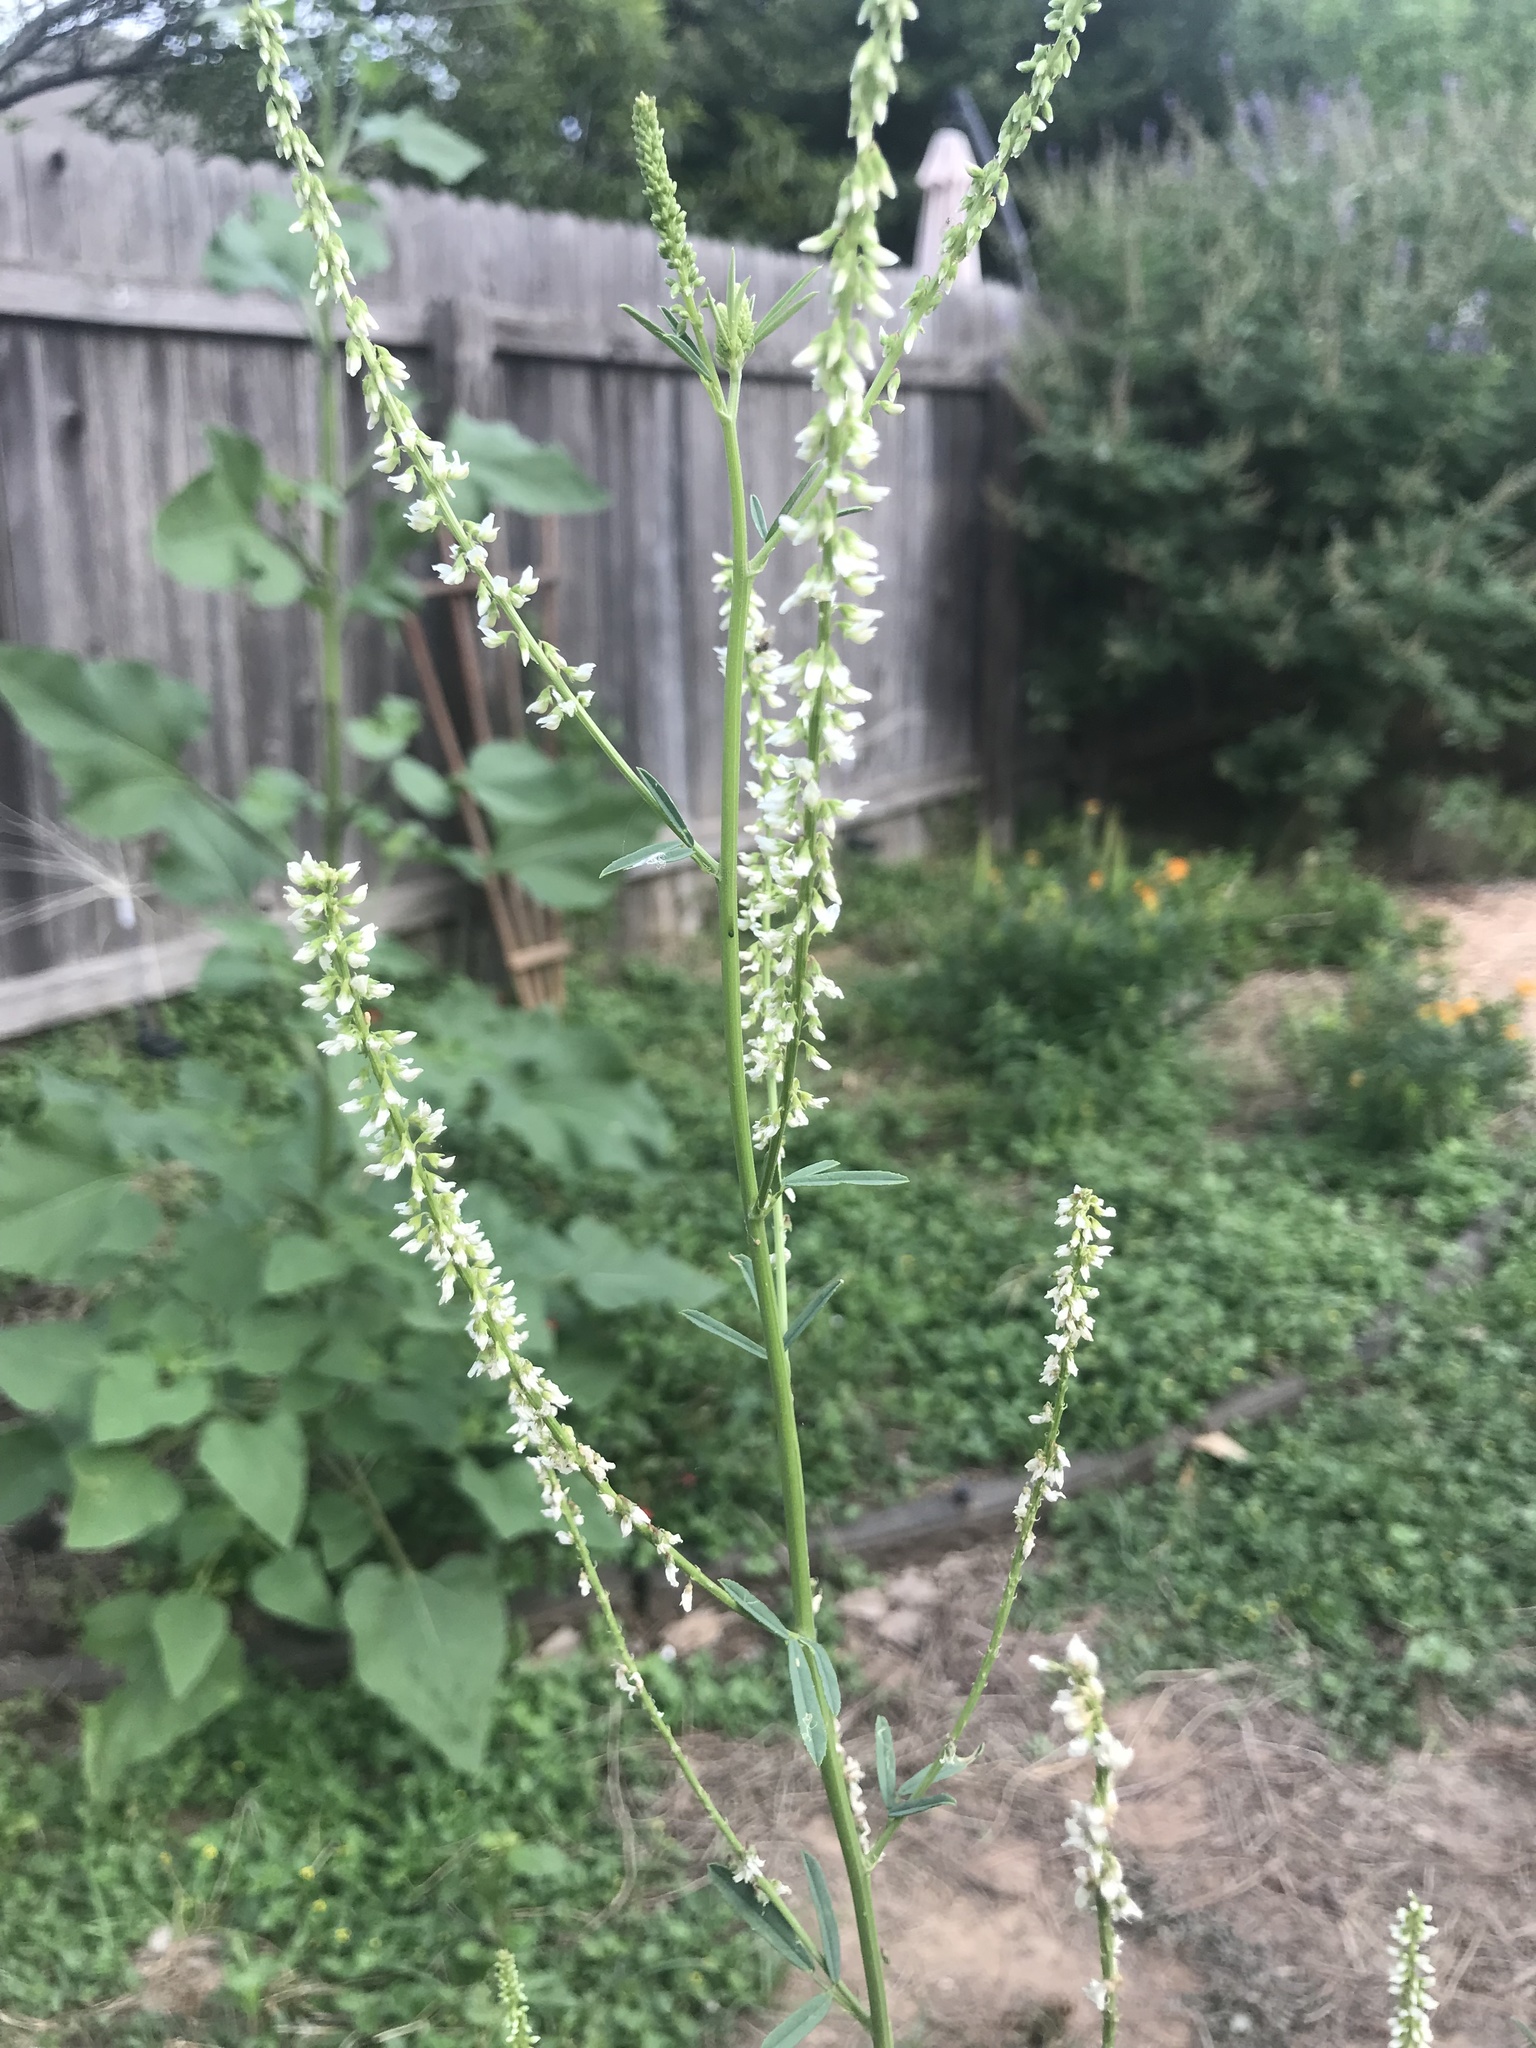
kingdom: Plantae
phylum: Tracheophyta
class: Magnoliopsida
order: Fabales
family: Fabaceae
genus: Melilotus
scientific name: Melilotus albus
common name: White melilot
